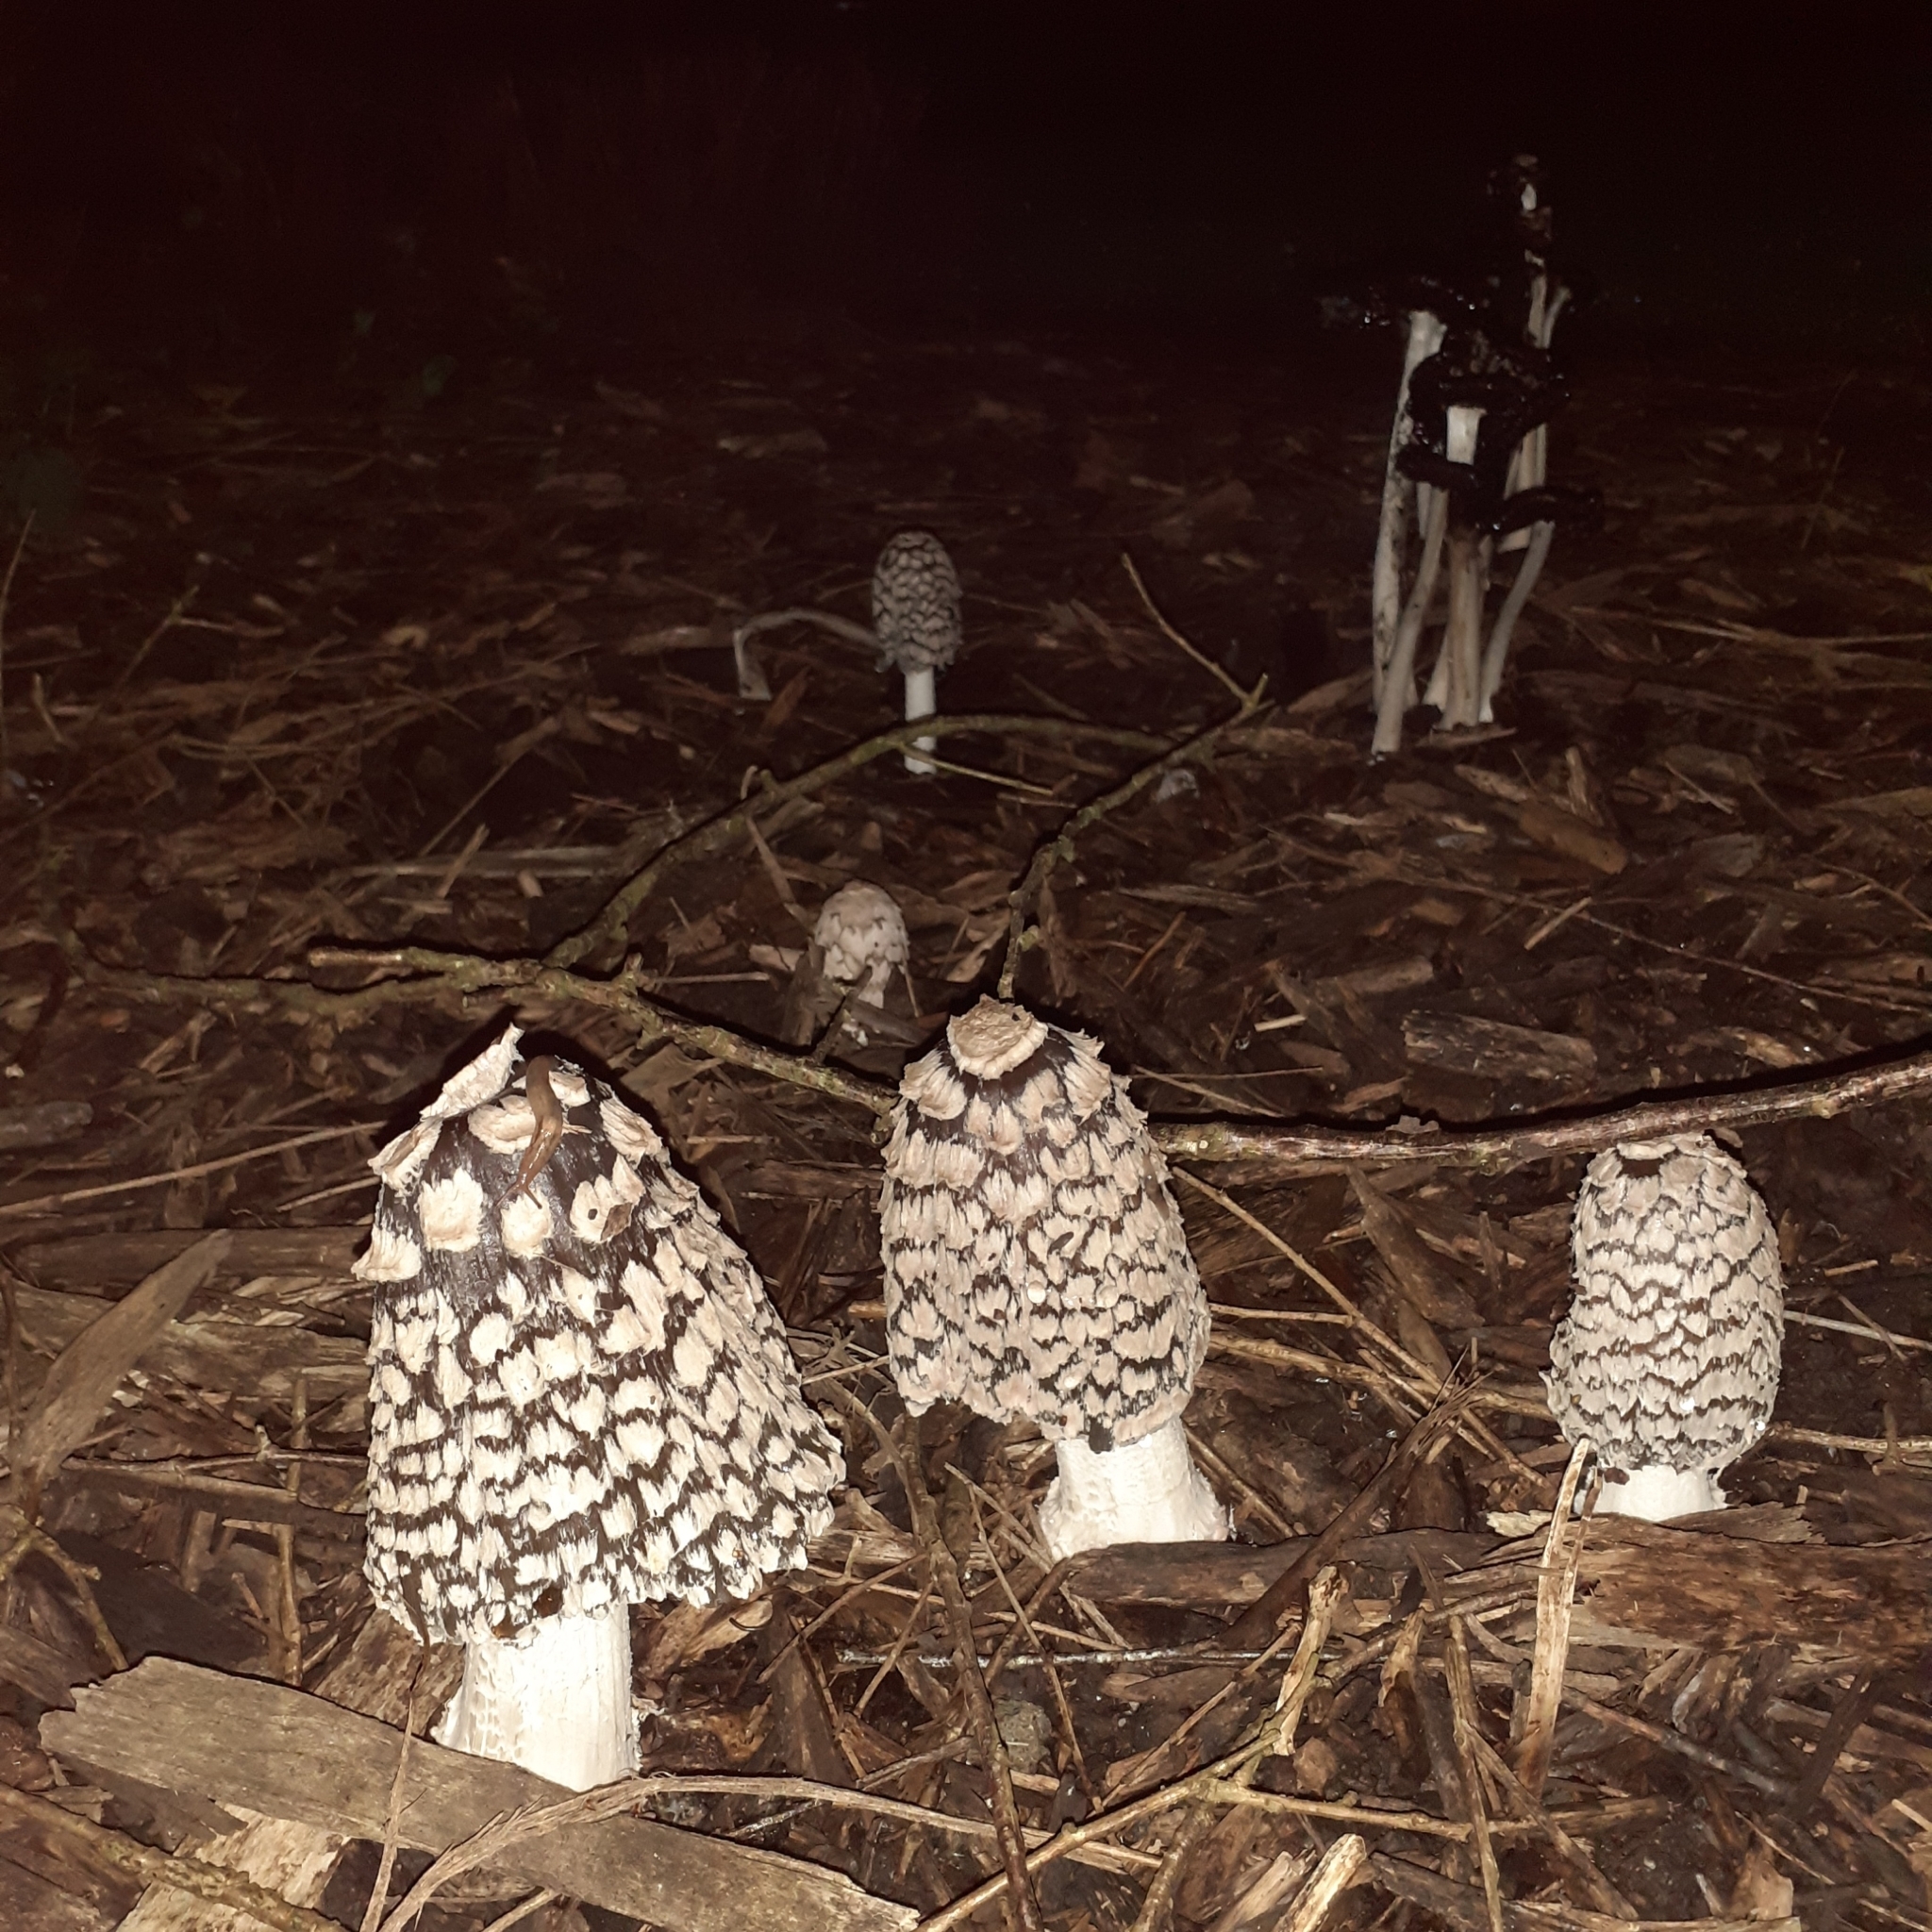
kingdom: Fungi
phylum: Basidiomycota
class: Agaricomycetes
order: Agaricales
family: Psathyrellaceae
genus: Coprinopsis
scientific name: Coprinopsis picacea
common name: Magpie inkcap
